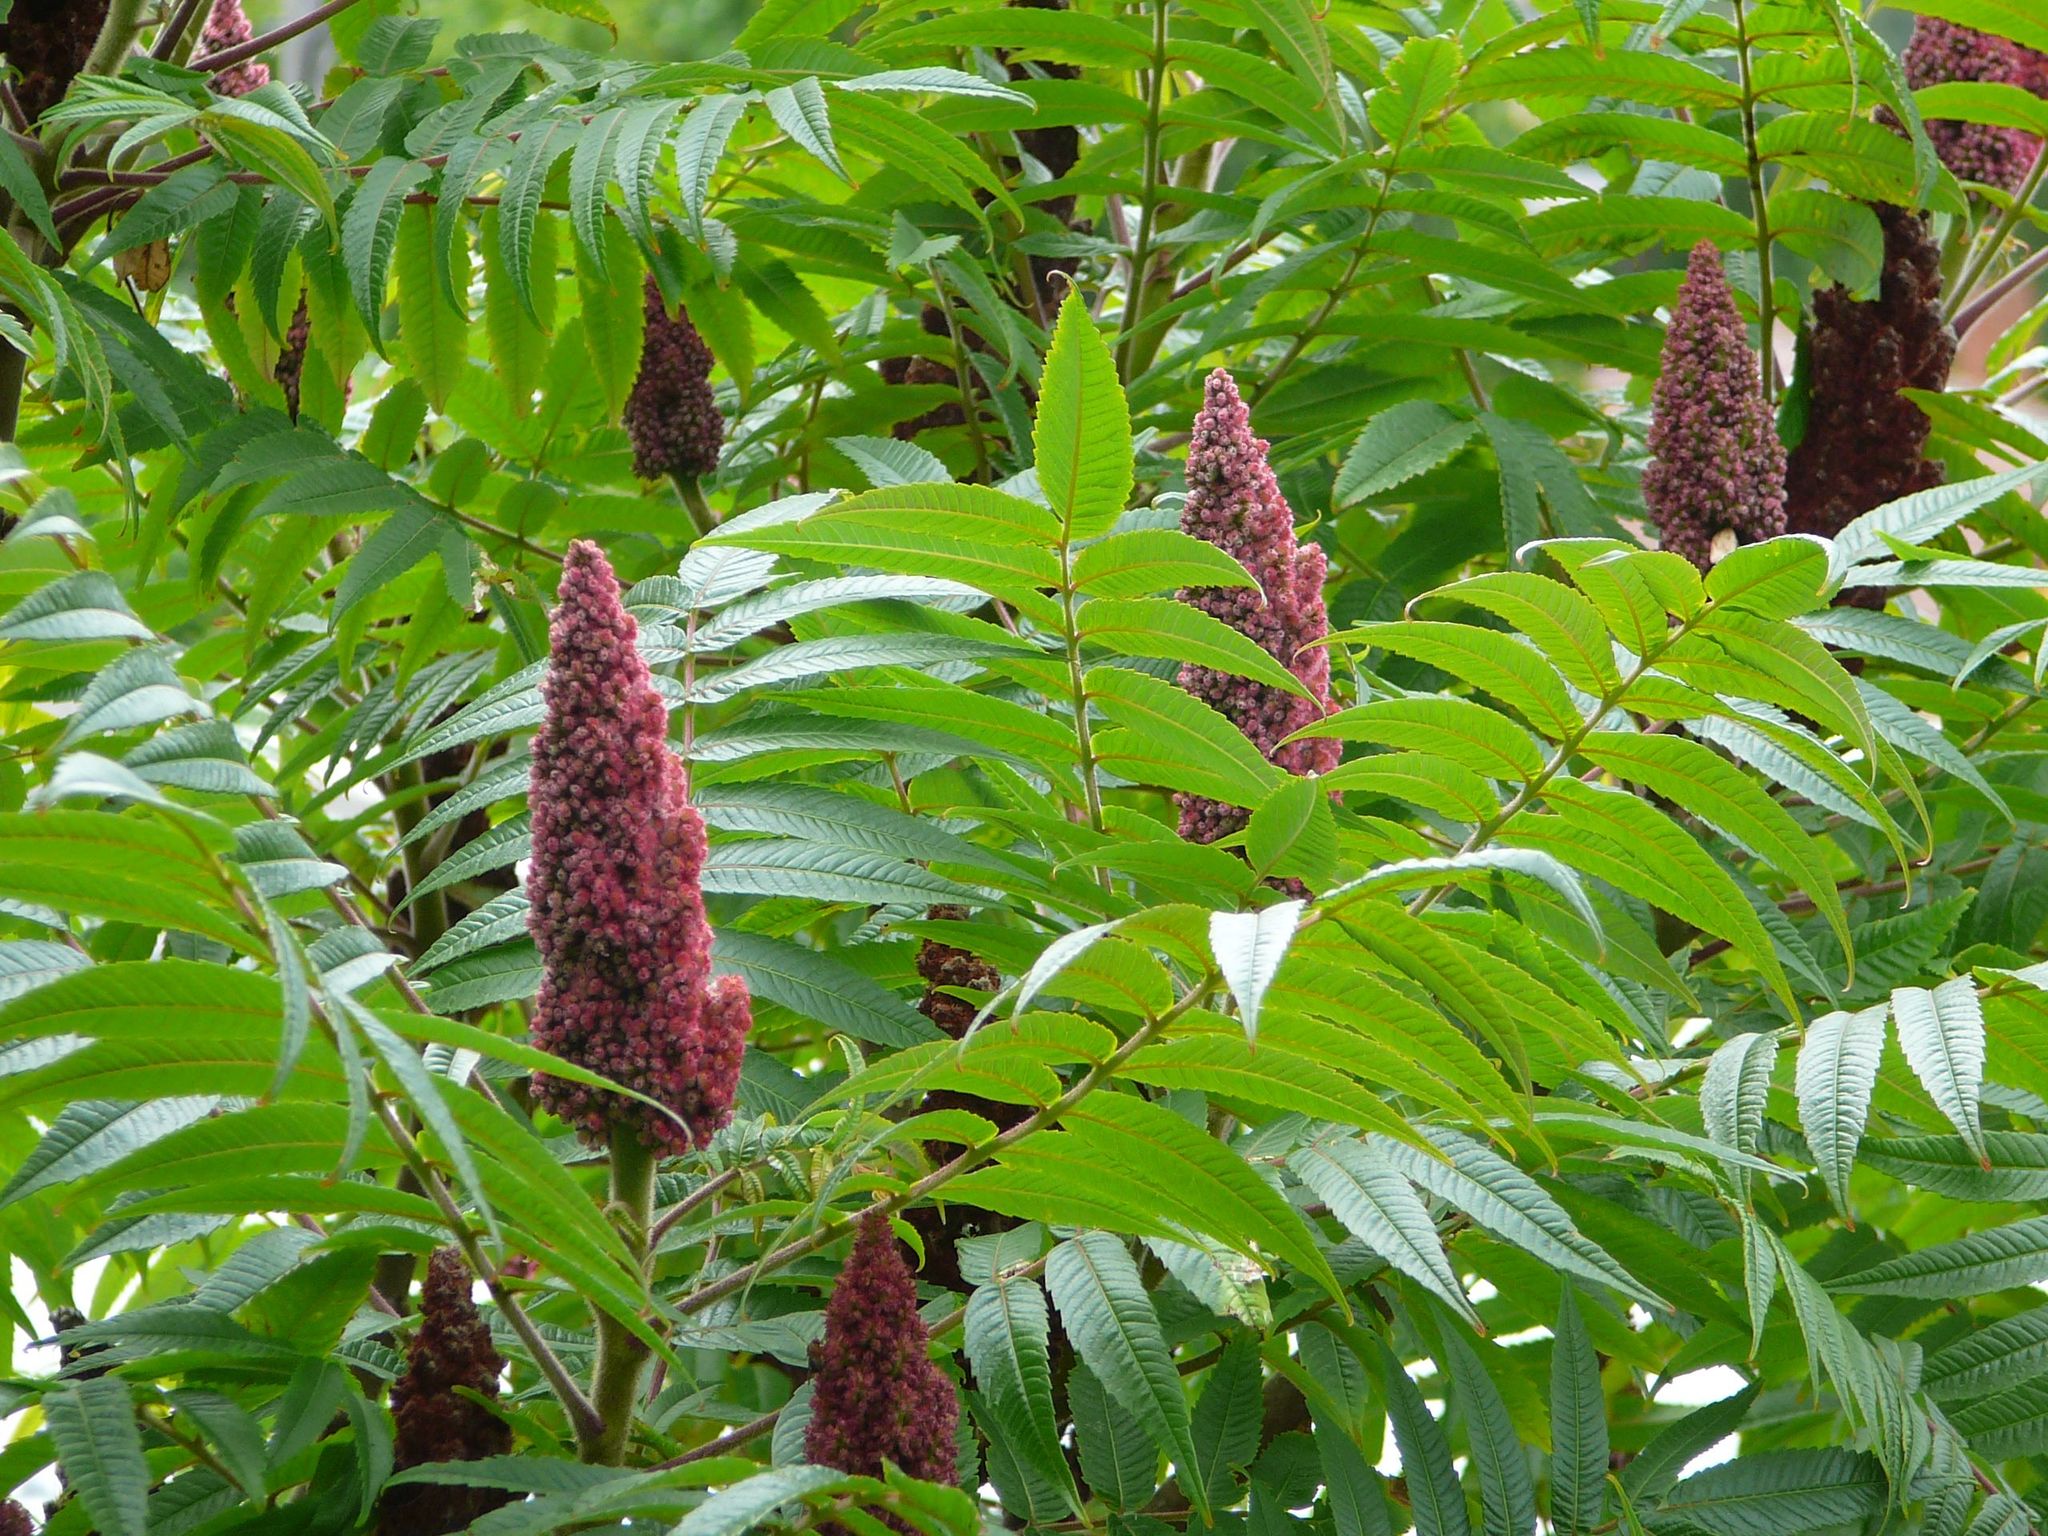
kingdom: Plantae
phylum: Tracheophyta
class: Magnoliopsida
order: Sapindales
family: Anacardiaceae
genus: Rhus
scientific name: Rhus typhina
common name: Staghorn sumac
